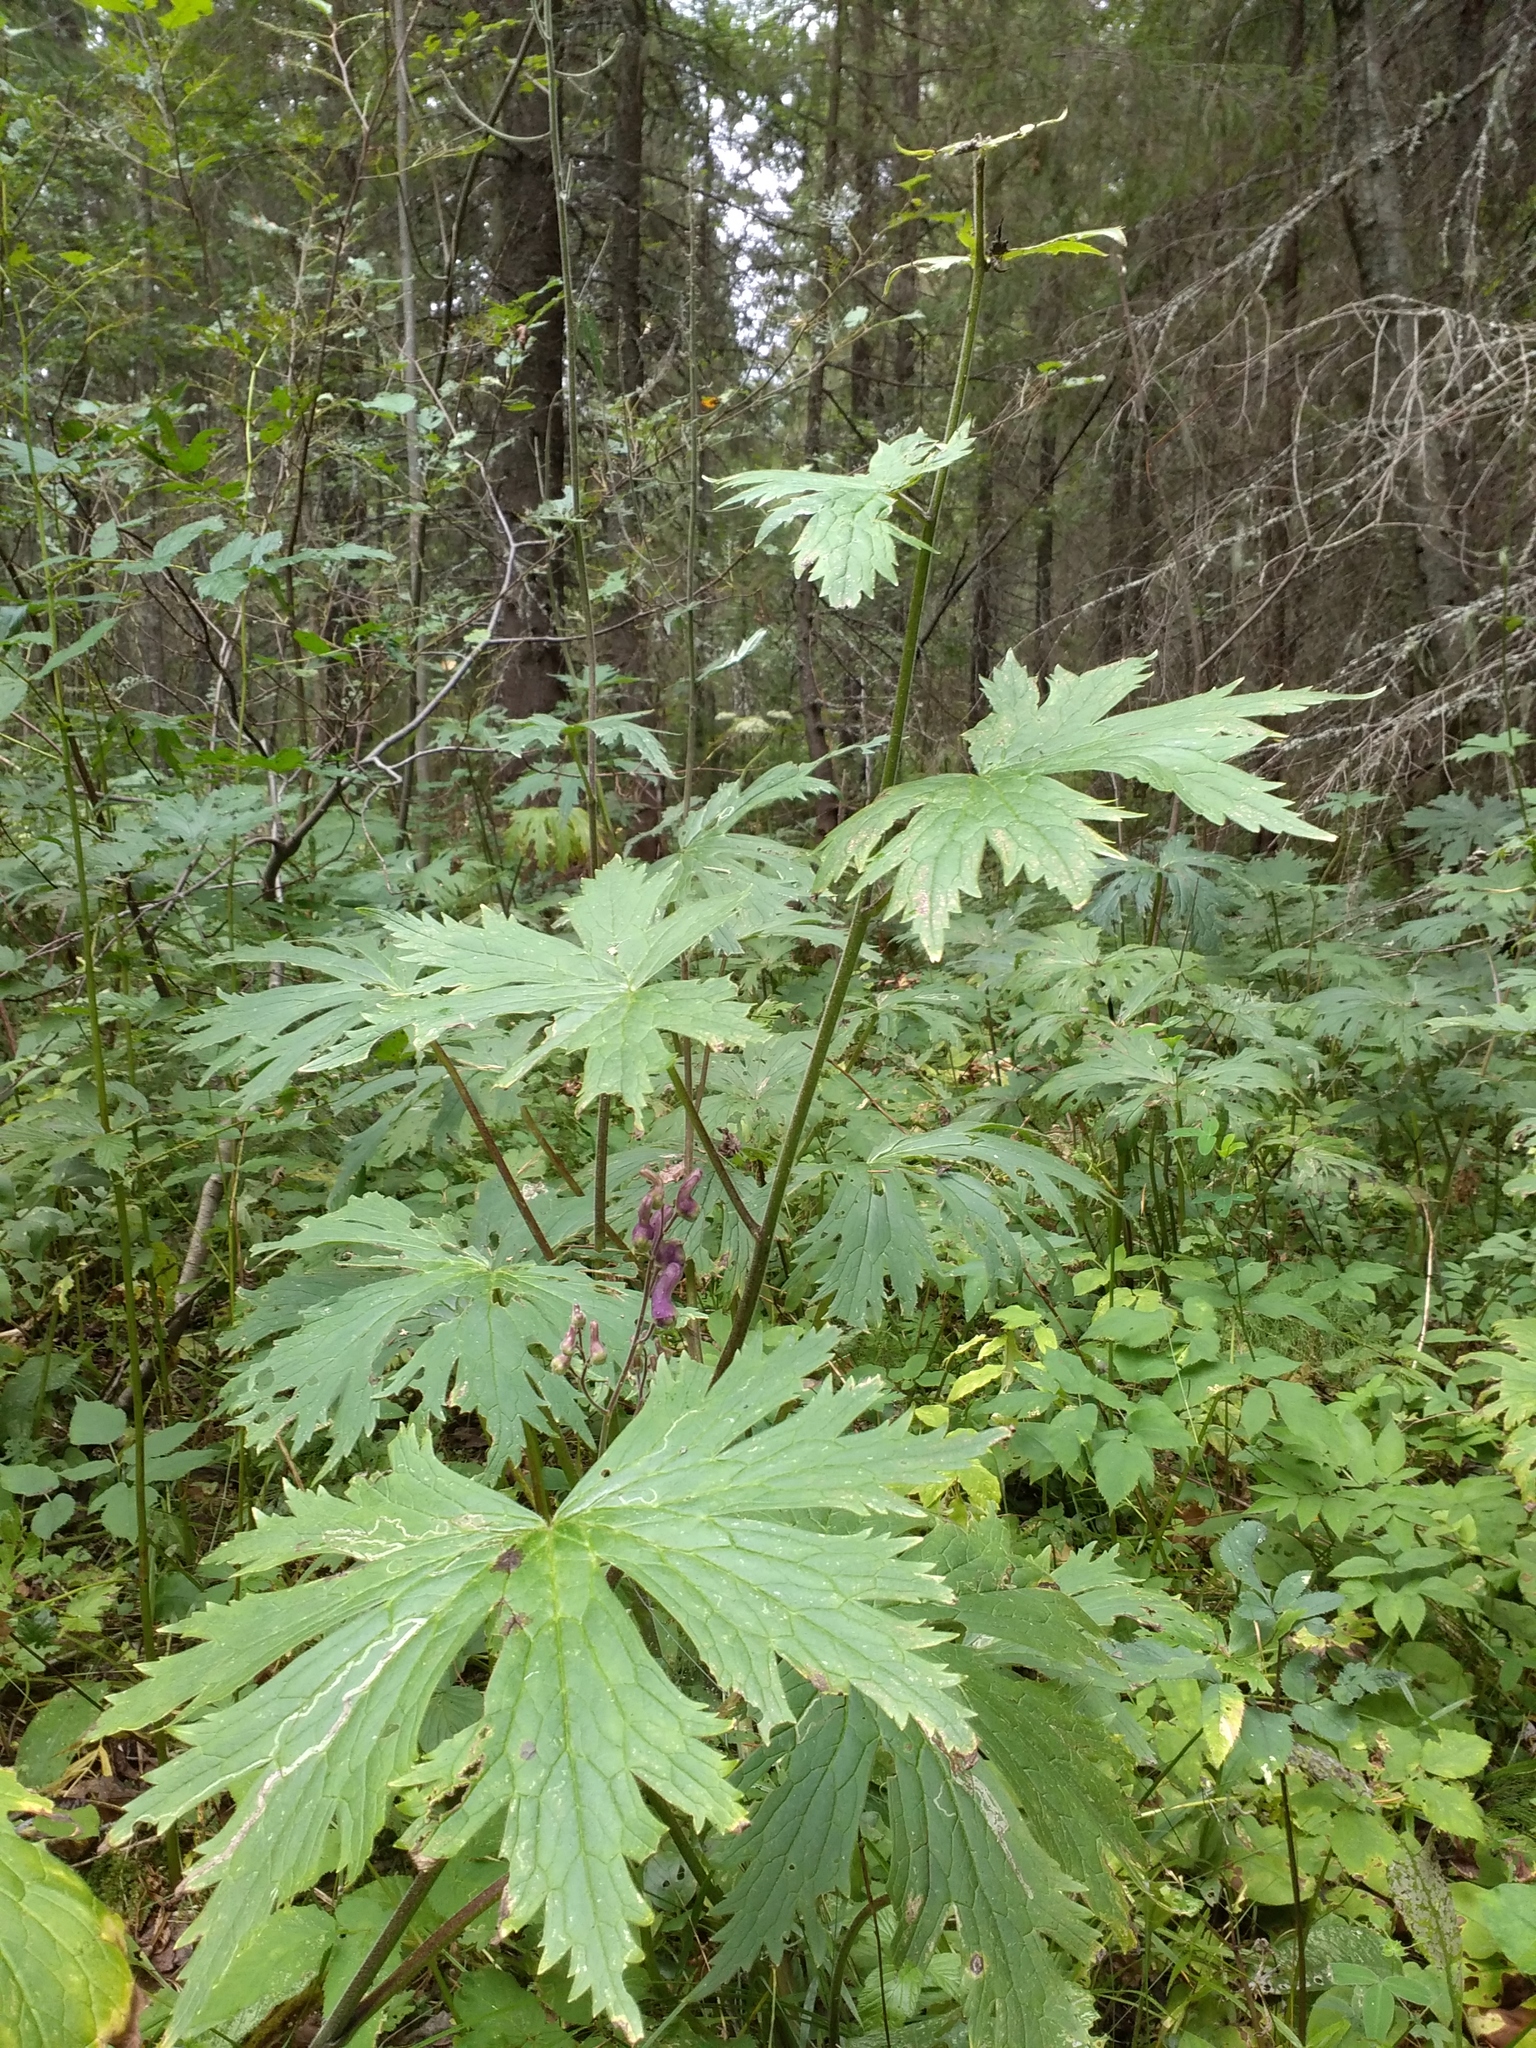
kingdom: Plantae
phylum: Tracheophyta
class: Magnoliopsida
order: Ranunculales
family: Ranunculaceae
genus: Aconitum
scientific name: Aconitum septentrionale
